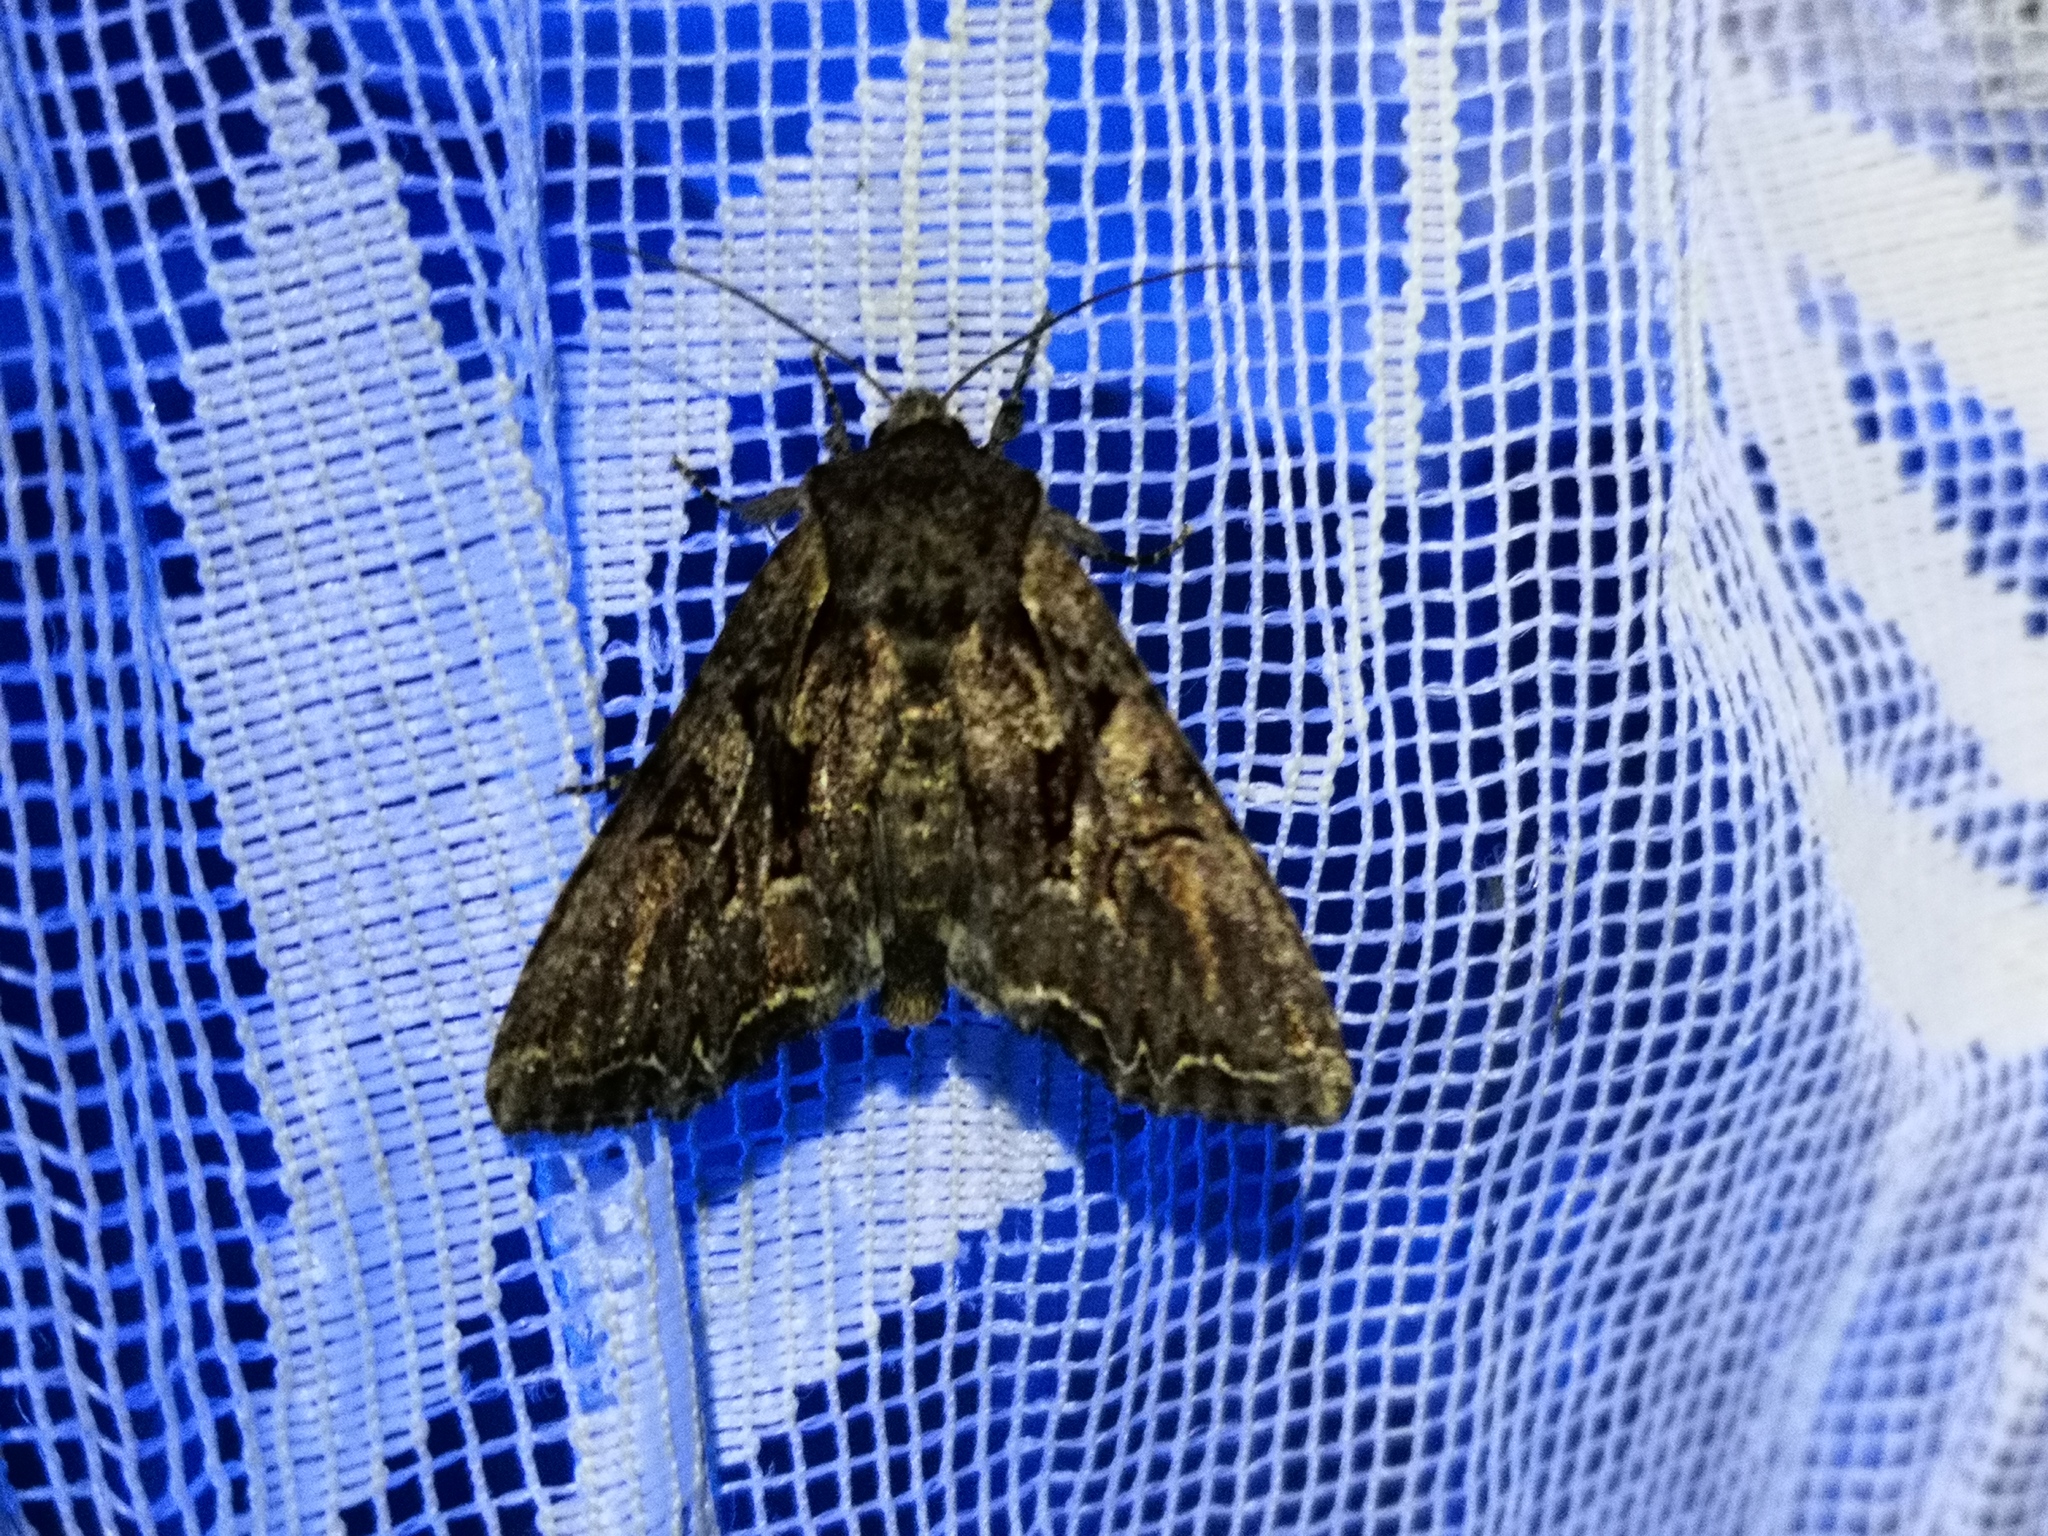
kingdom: Animalia
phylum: Arthropoda
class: Insecta
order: Lepidoptera
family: Noctuidae
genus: Lacanobia
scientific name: Lacanobia thalassina
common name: Pale-shouldered brocade
